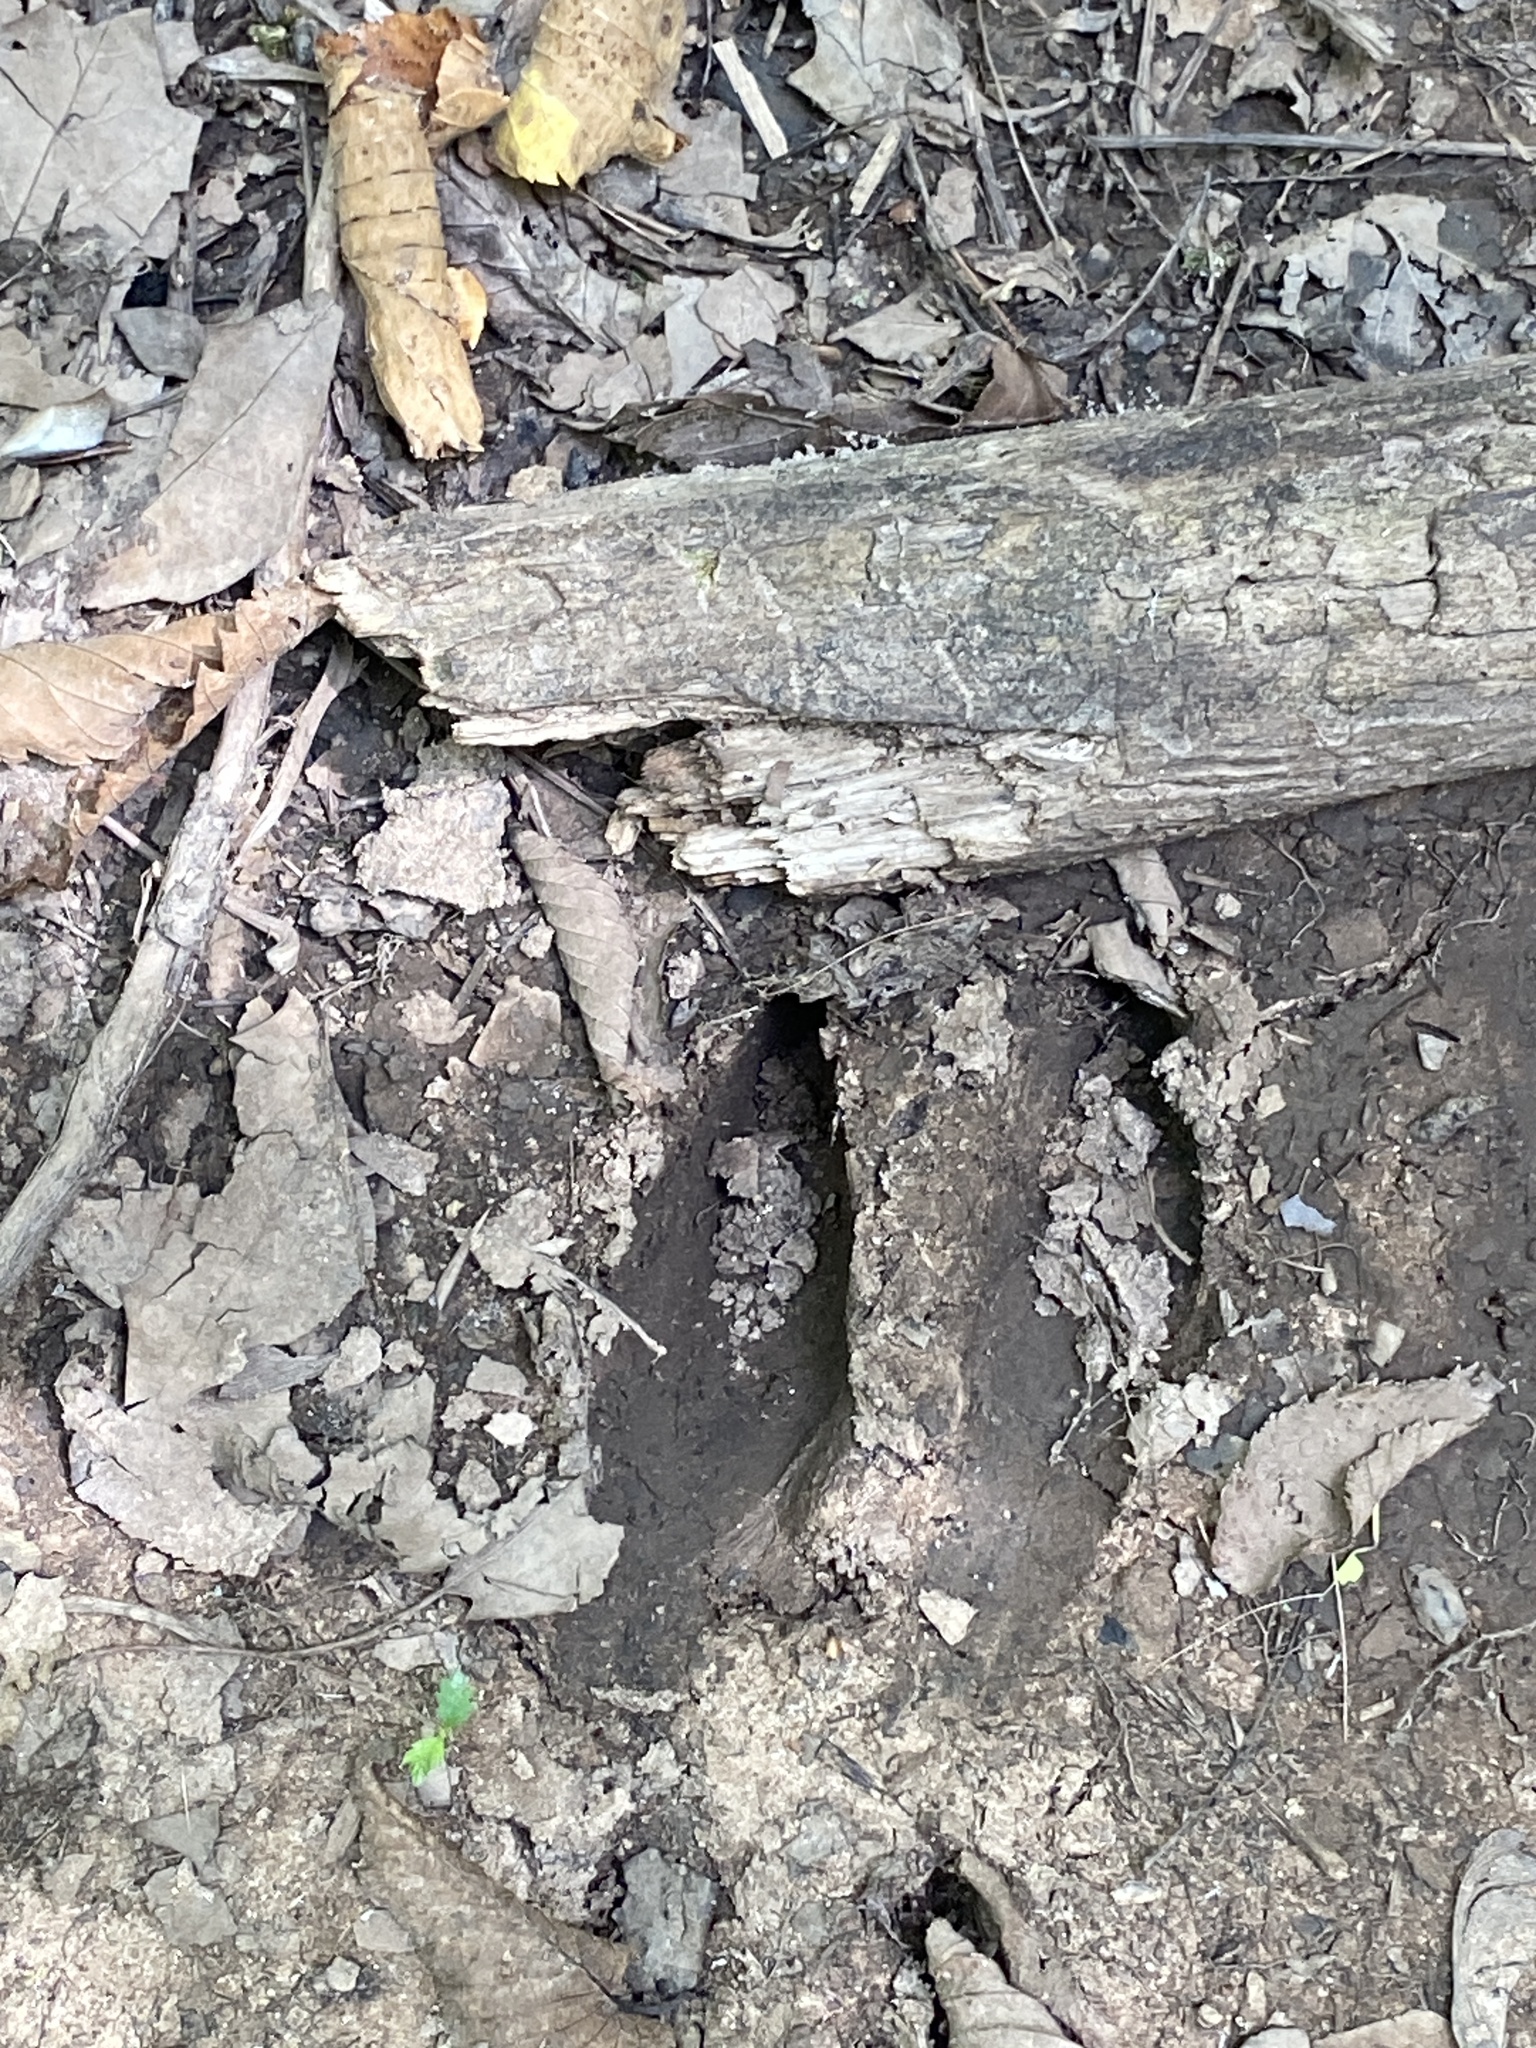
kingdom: Animalia
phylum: Chordata
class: Mammalia
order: Artiodactyla
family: Cervidae
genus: Odocoileus
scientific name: Odocoileus virginianus
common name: White-tailed deer
